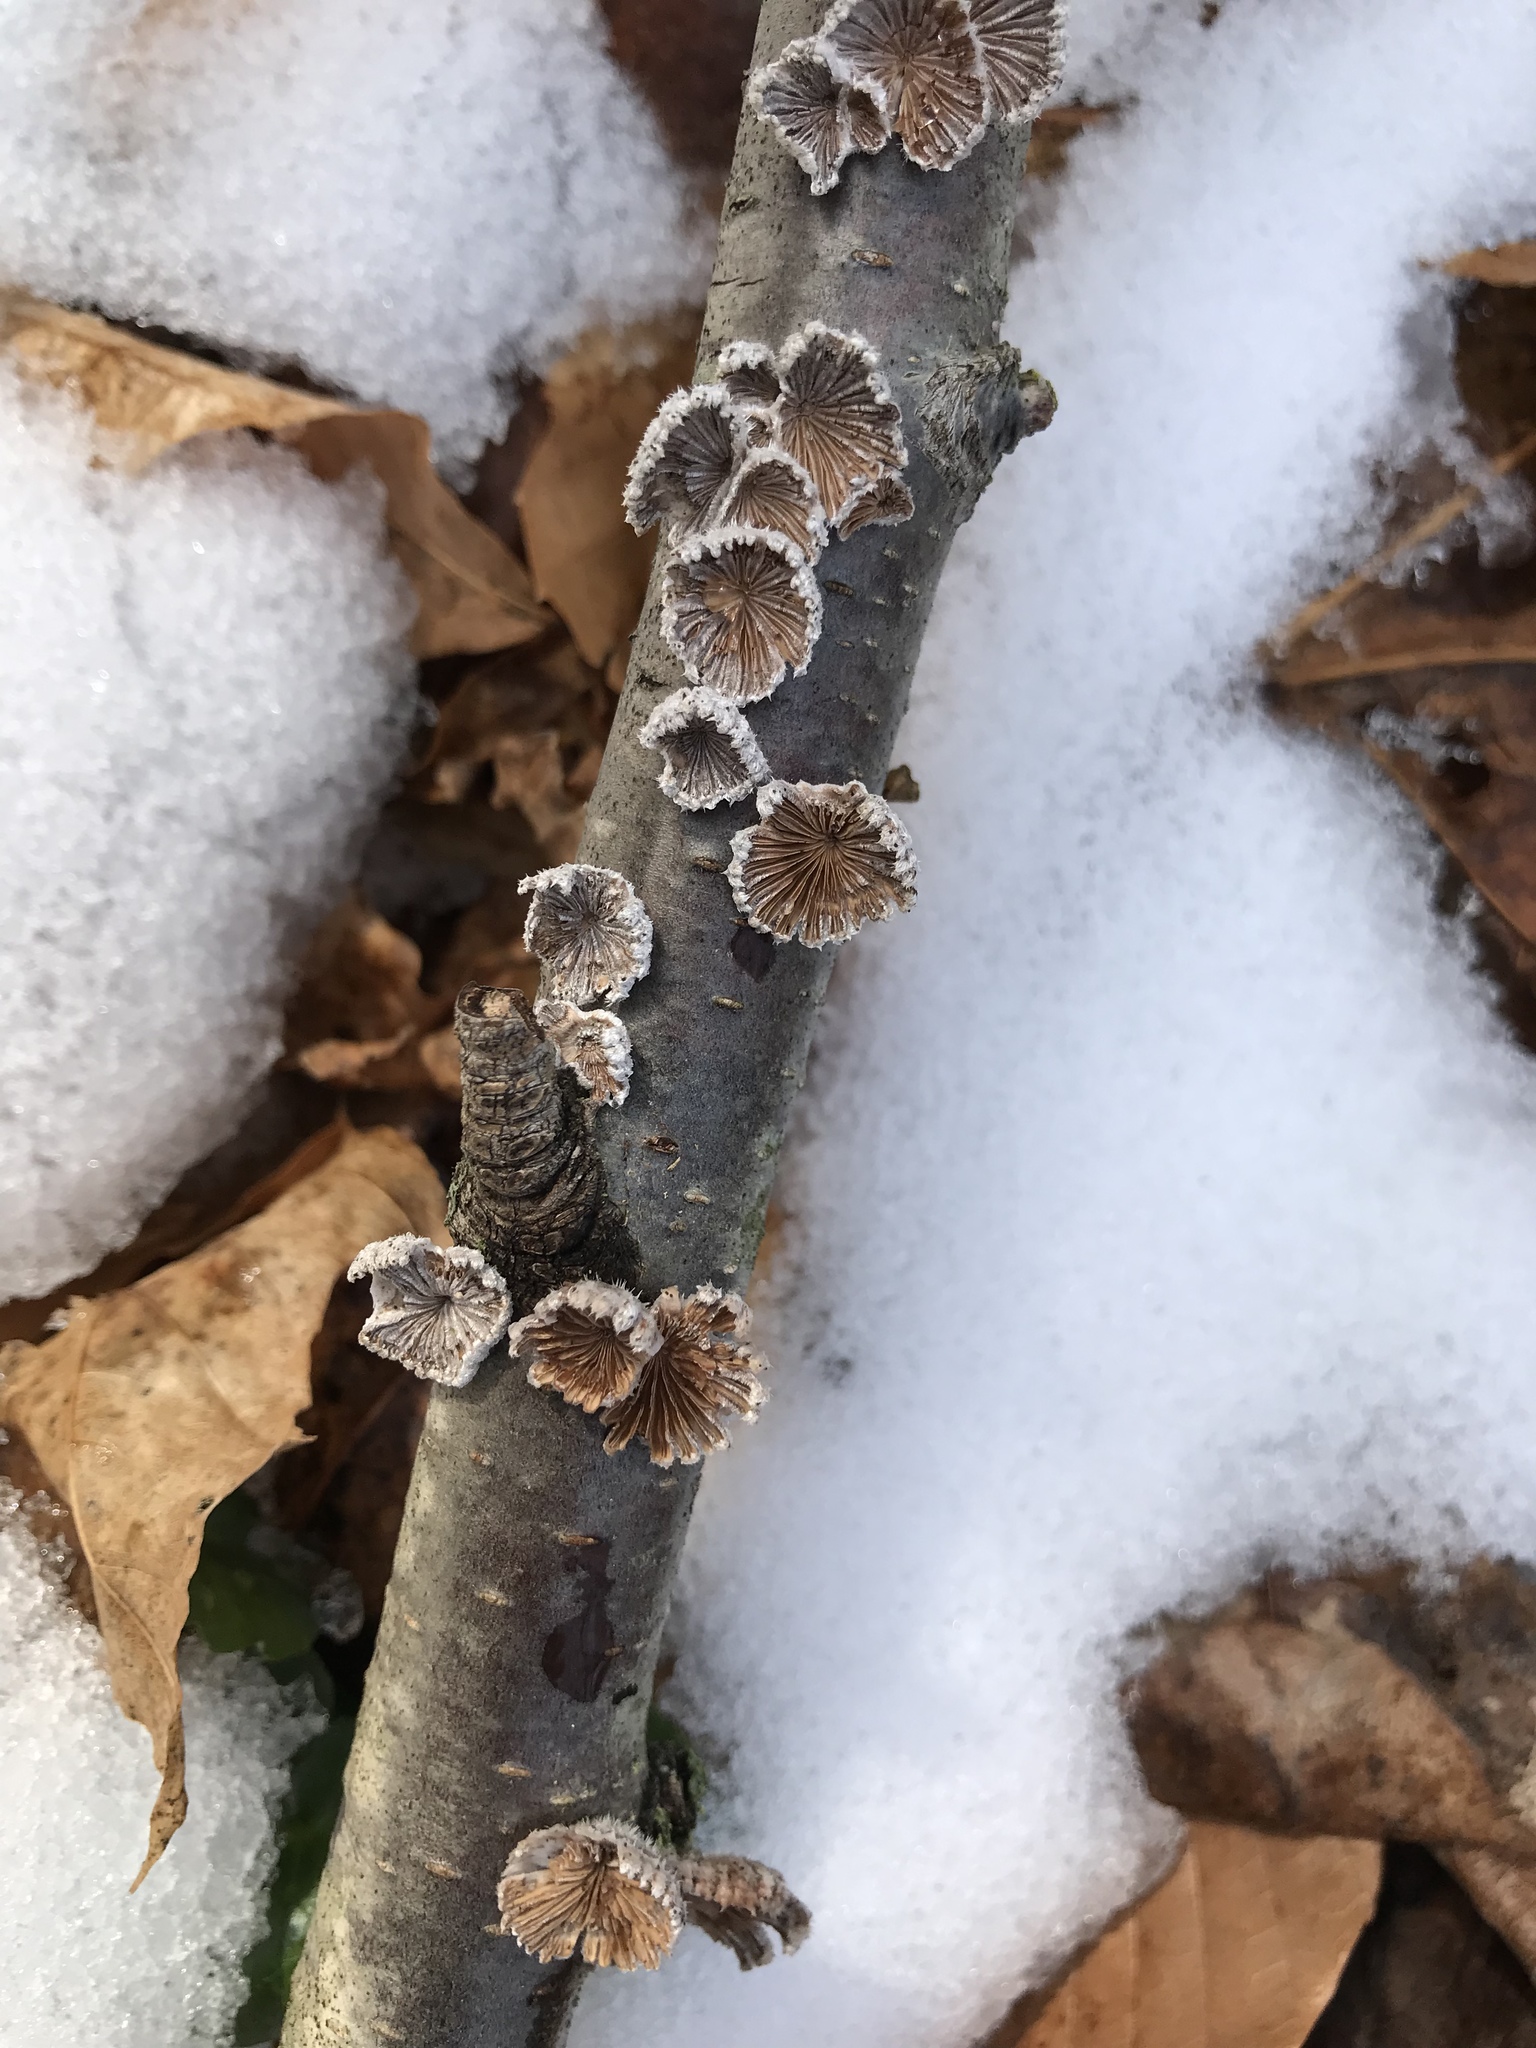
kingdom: Fungi
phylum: Basidiomycota
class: Agaricomycetes
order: Agaricales
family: Schizophyllaceae
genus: Schizophyllum
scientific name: Schizophyllum commune
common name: Common porecrust
